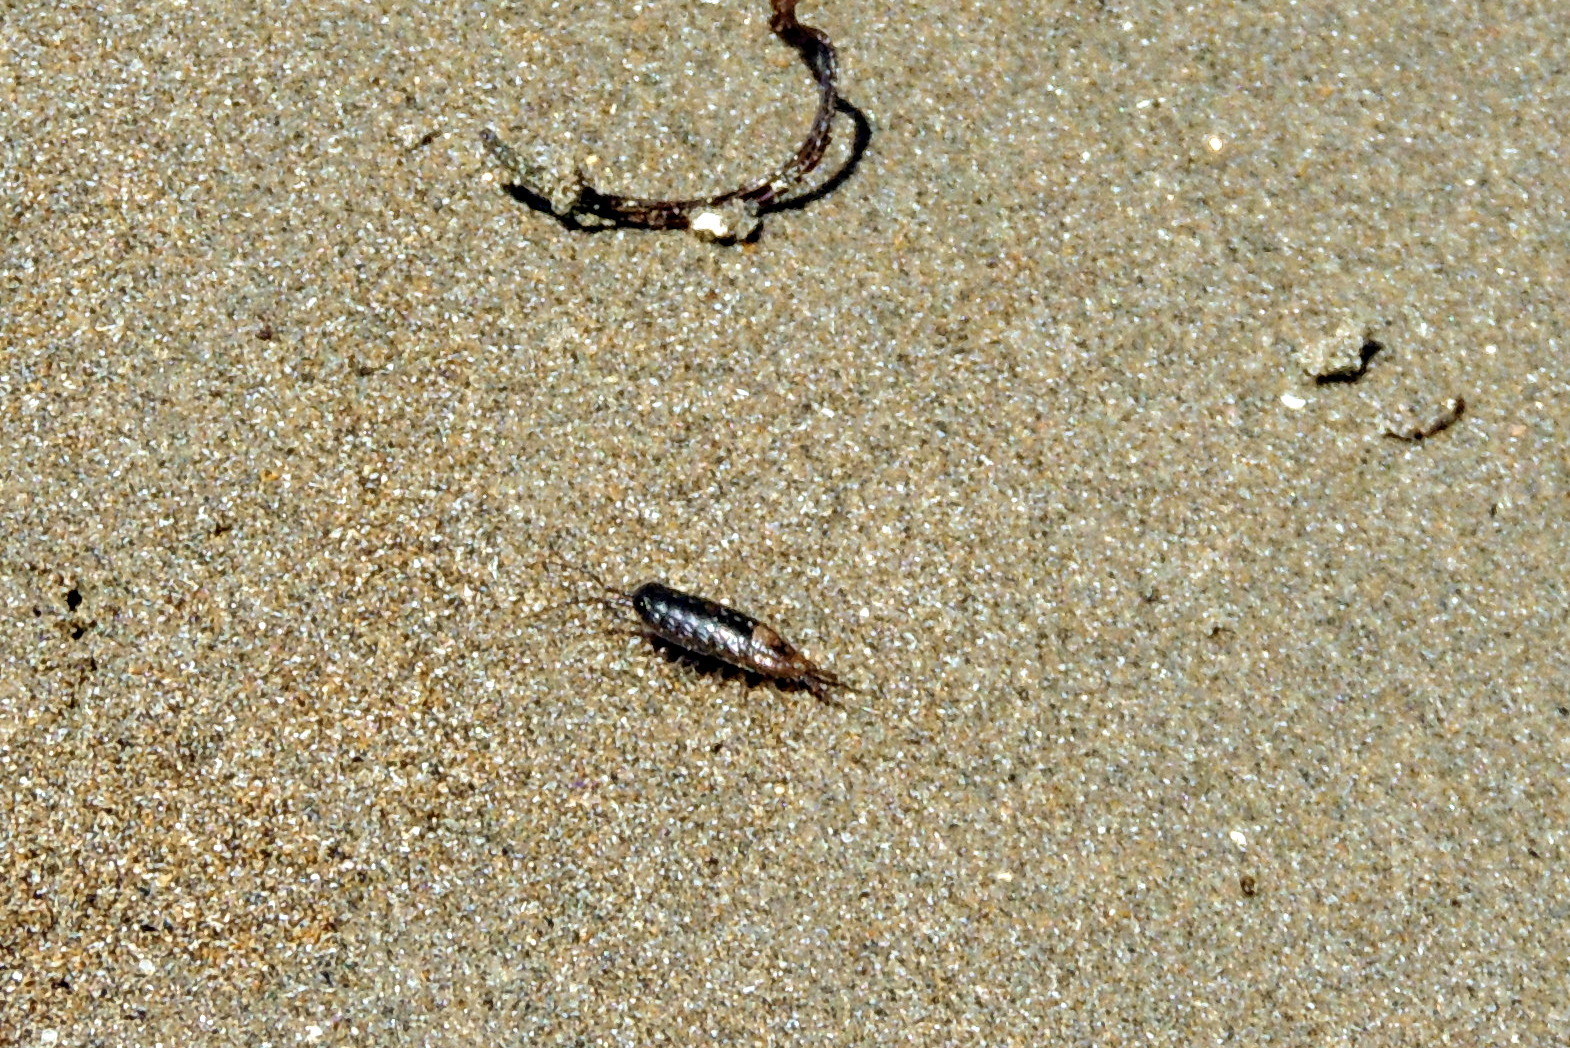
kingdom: Animalia
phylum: Arthropoda
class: Malacostraca
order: Isopoda
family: Ligiidae
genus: Ligia
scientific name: Ligia occidentalis
